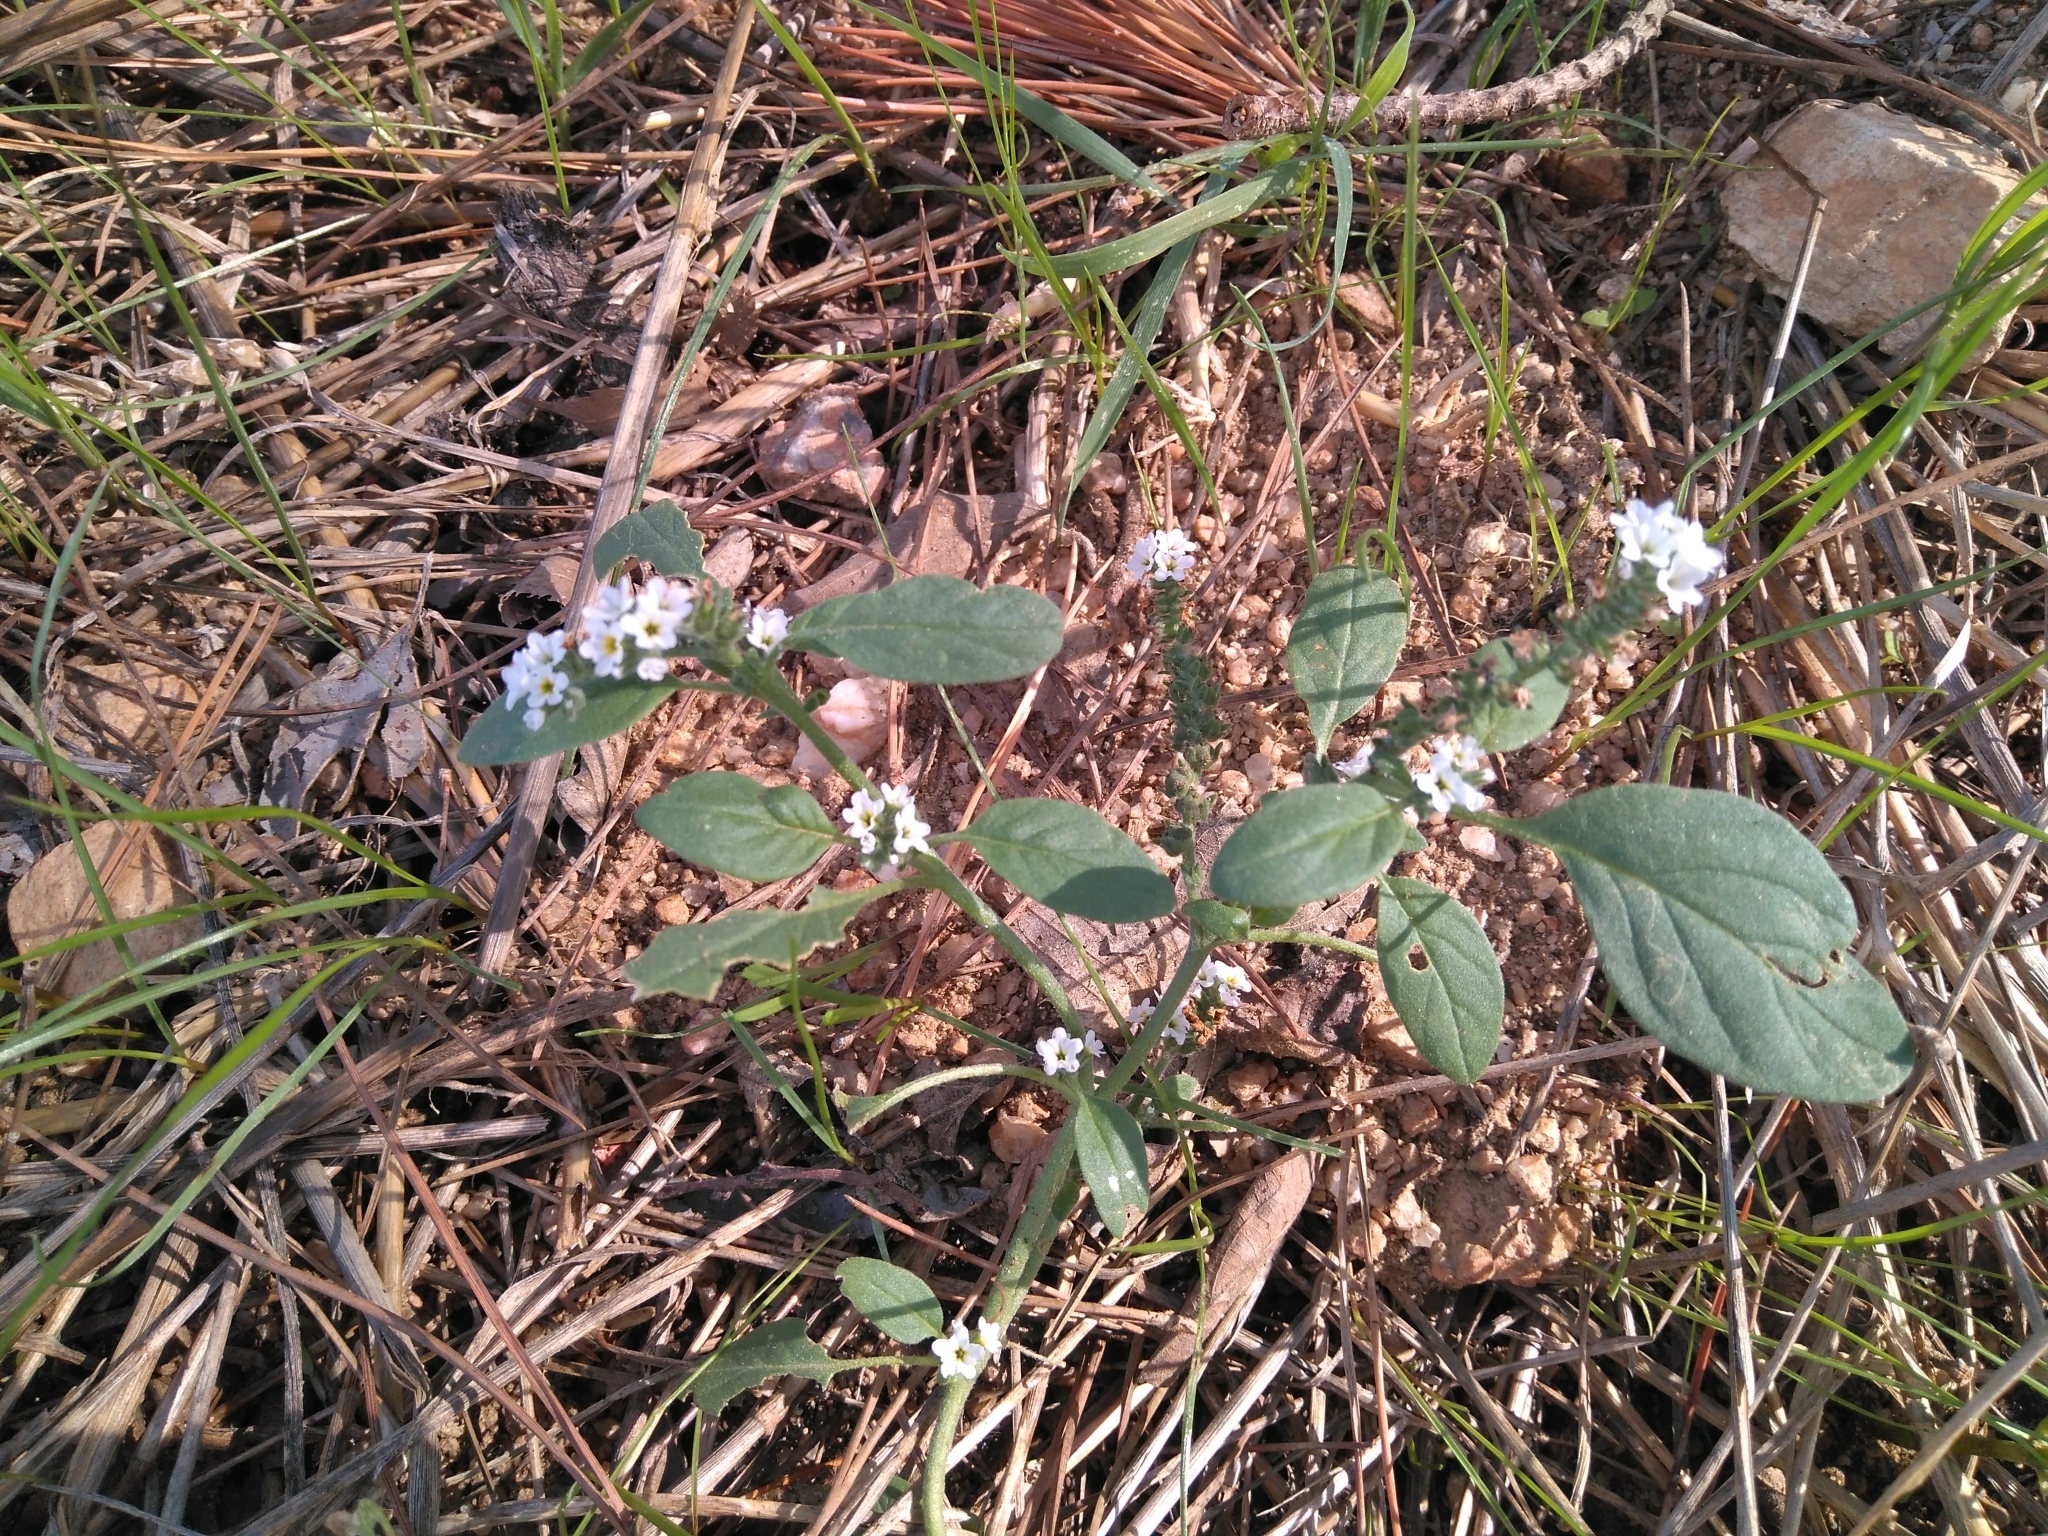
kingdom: Plantae
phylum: Tracheophyta
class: Magnoliopsida
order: Boraginales
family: Heliotropiaceae
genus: Heliotropium
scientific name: Heliotropium europaeum
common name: European heliotrope
